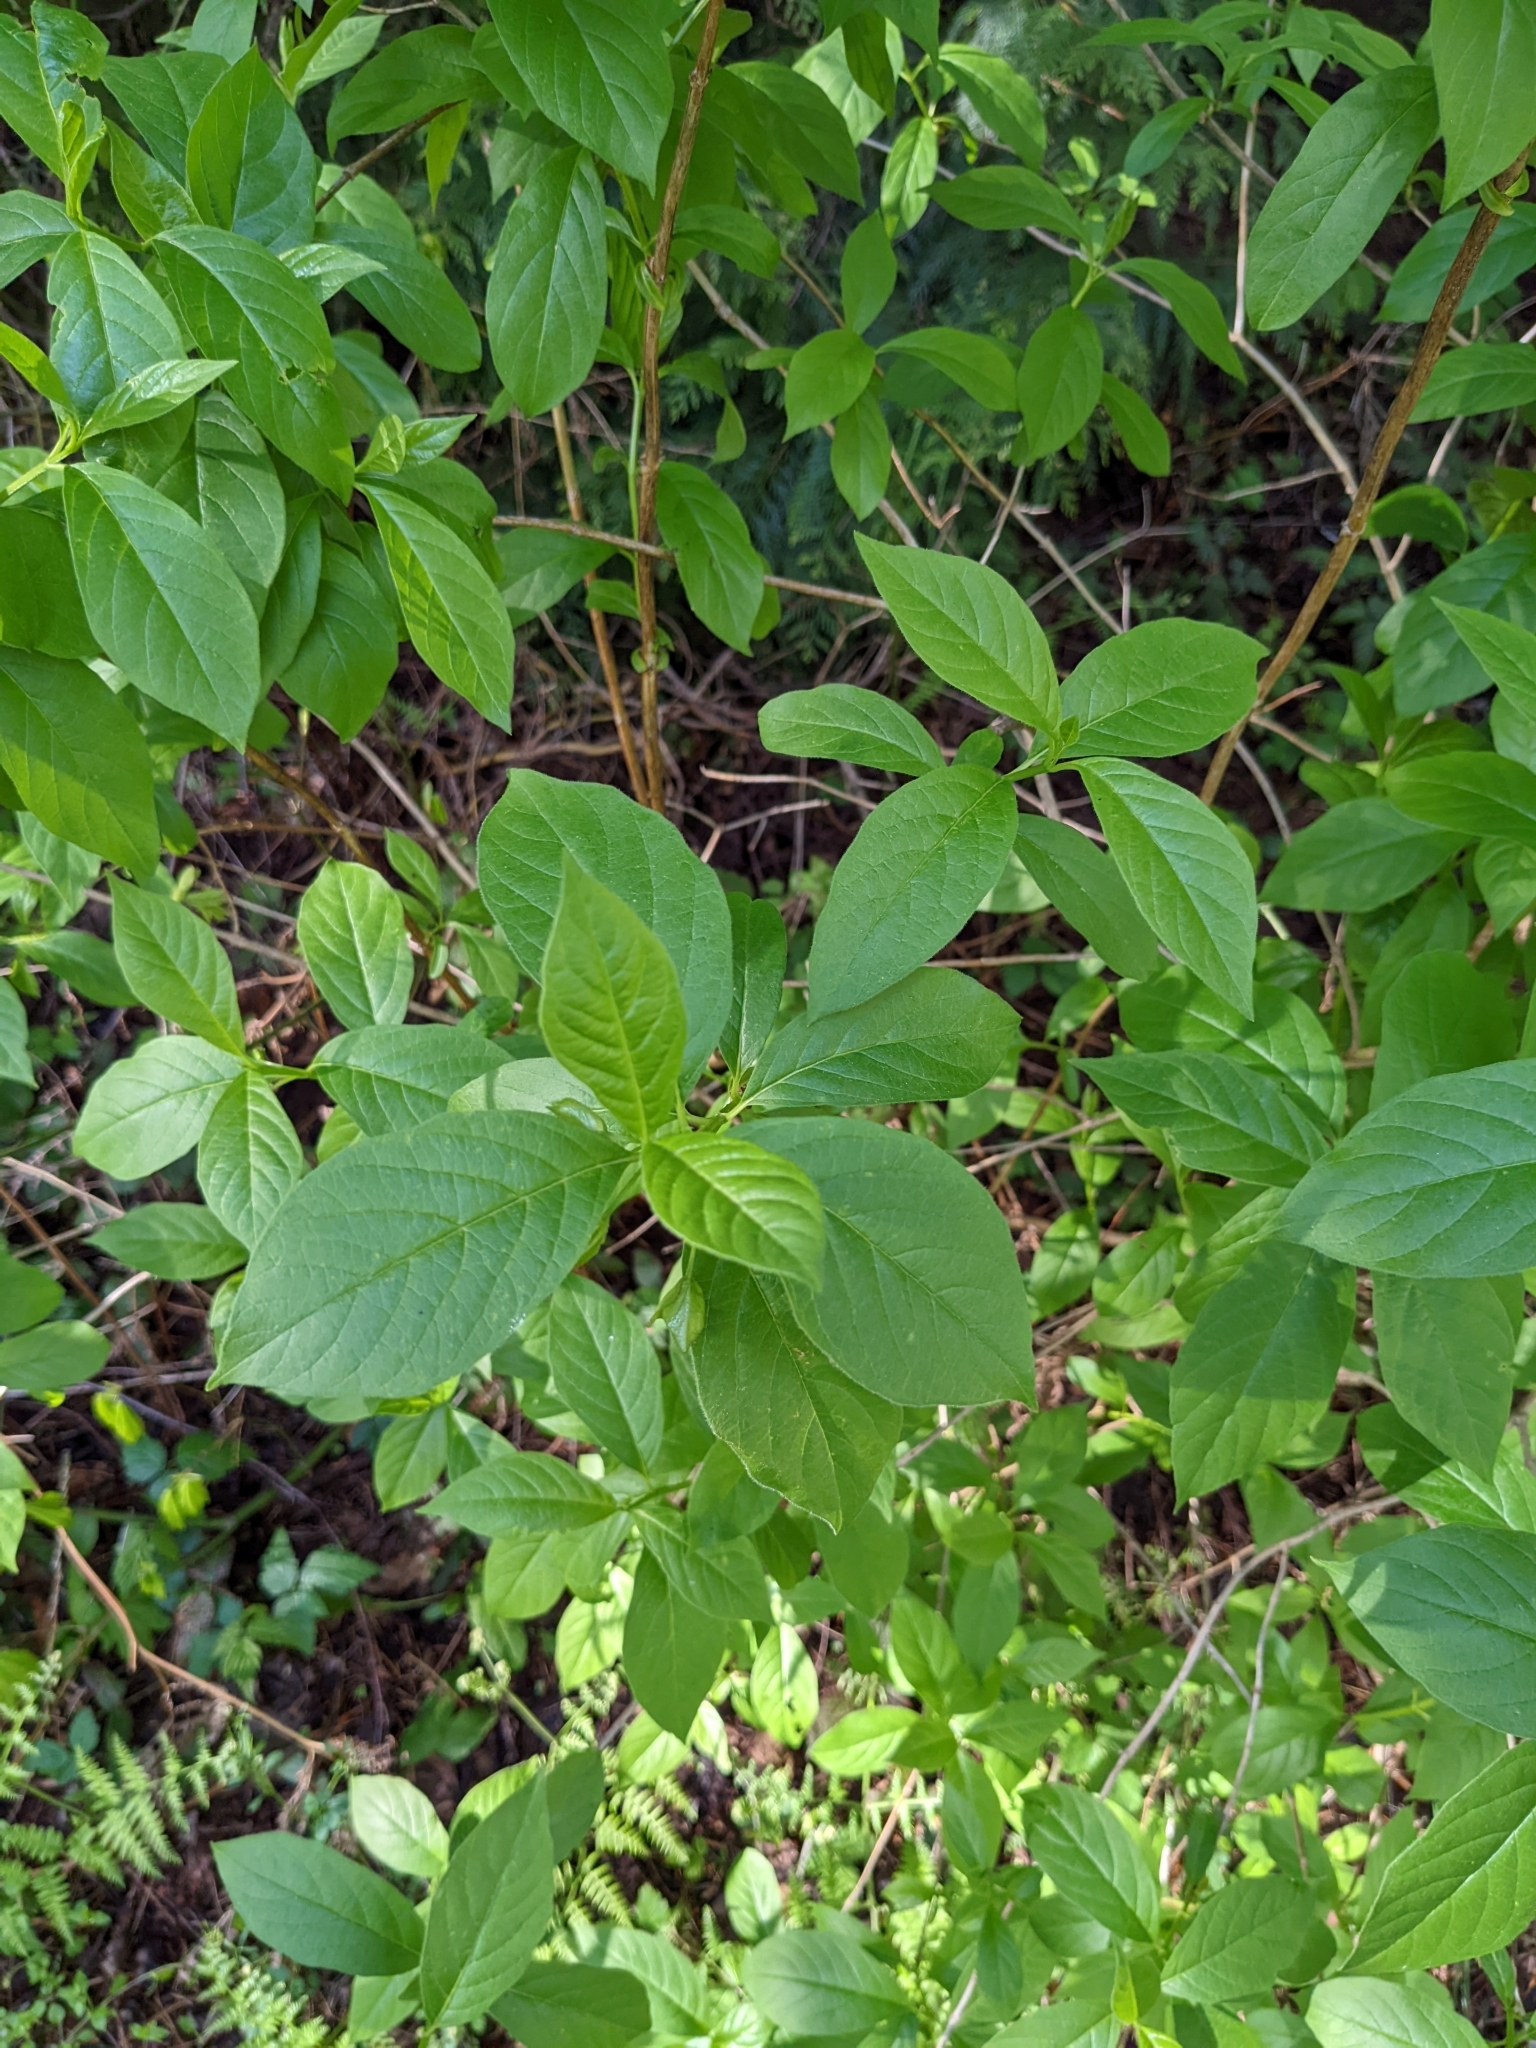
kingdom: Plantae
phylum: Tracheophyta
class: Magnoliopsida
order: Dipsacales
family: Caprifoliaceae
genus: Lonicera
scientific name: Lonicera involucrata
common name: Californian honeysuckle
